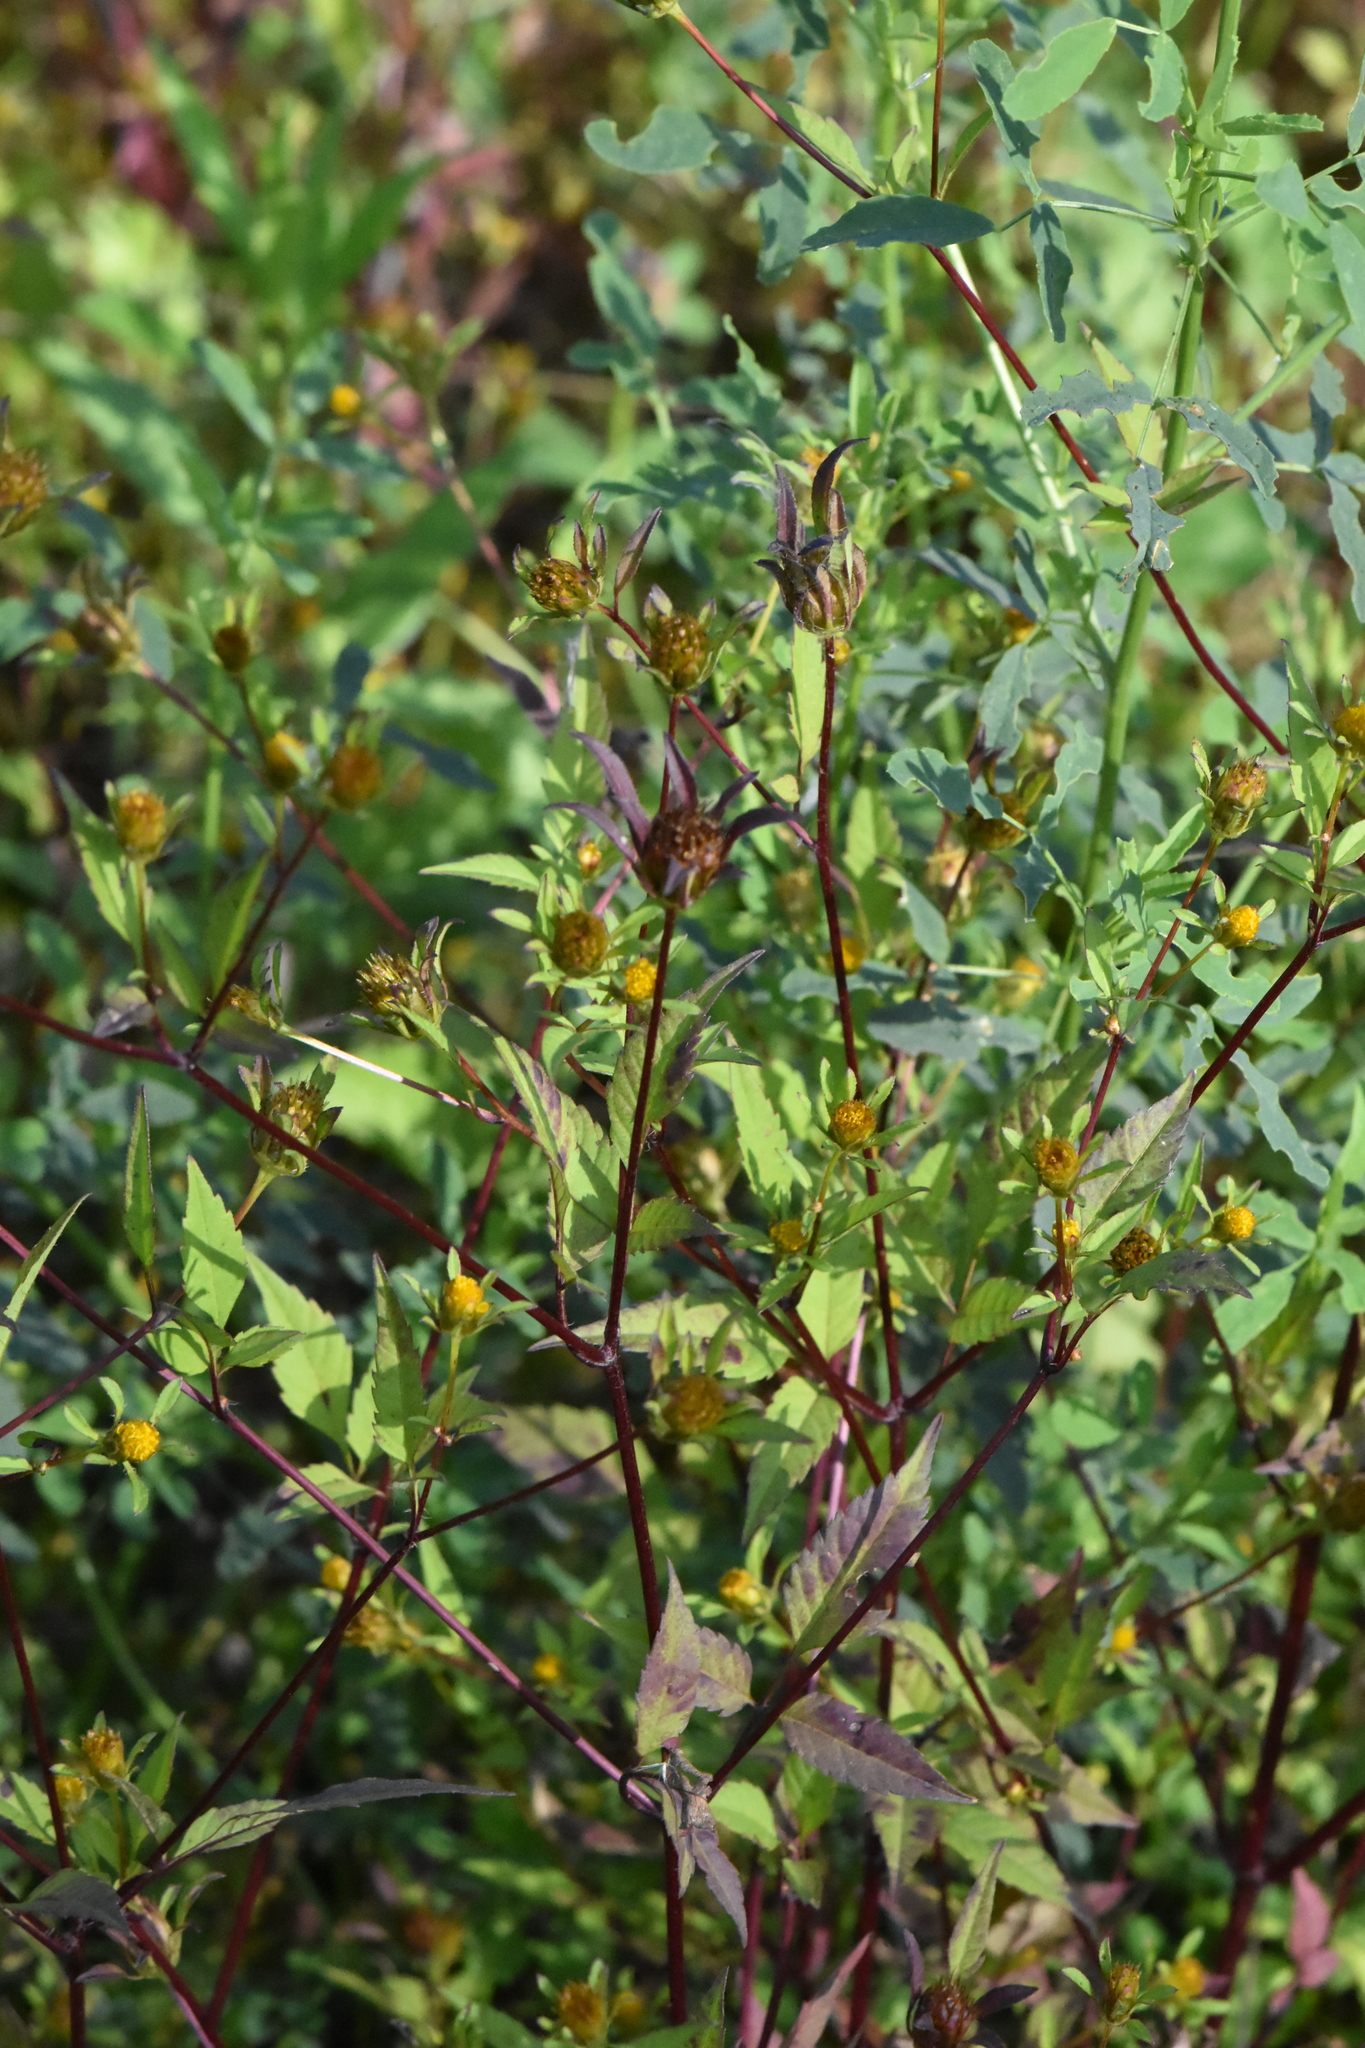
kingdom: Plantae
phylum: Tracheophyta
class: Magnoliopsida
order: Asterales
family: Asteraceae
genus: Bidens
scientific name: Bidens frondosa
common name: Beggarticks
